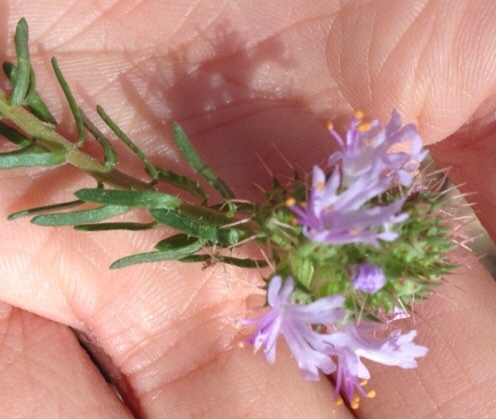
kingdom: Plantae
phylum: Tracheophyta
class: Magnoliopsida
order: Ericales
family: Primulaceae
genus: Coris
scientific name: Coris monspeliensis
